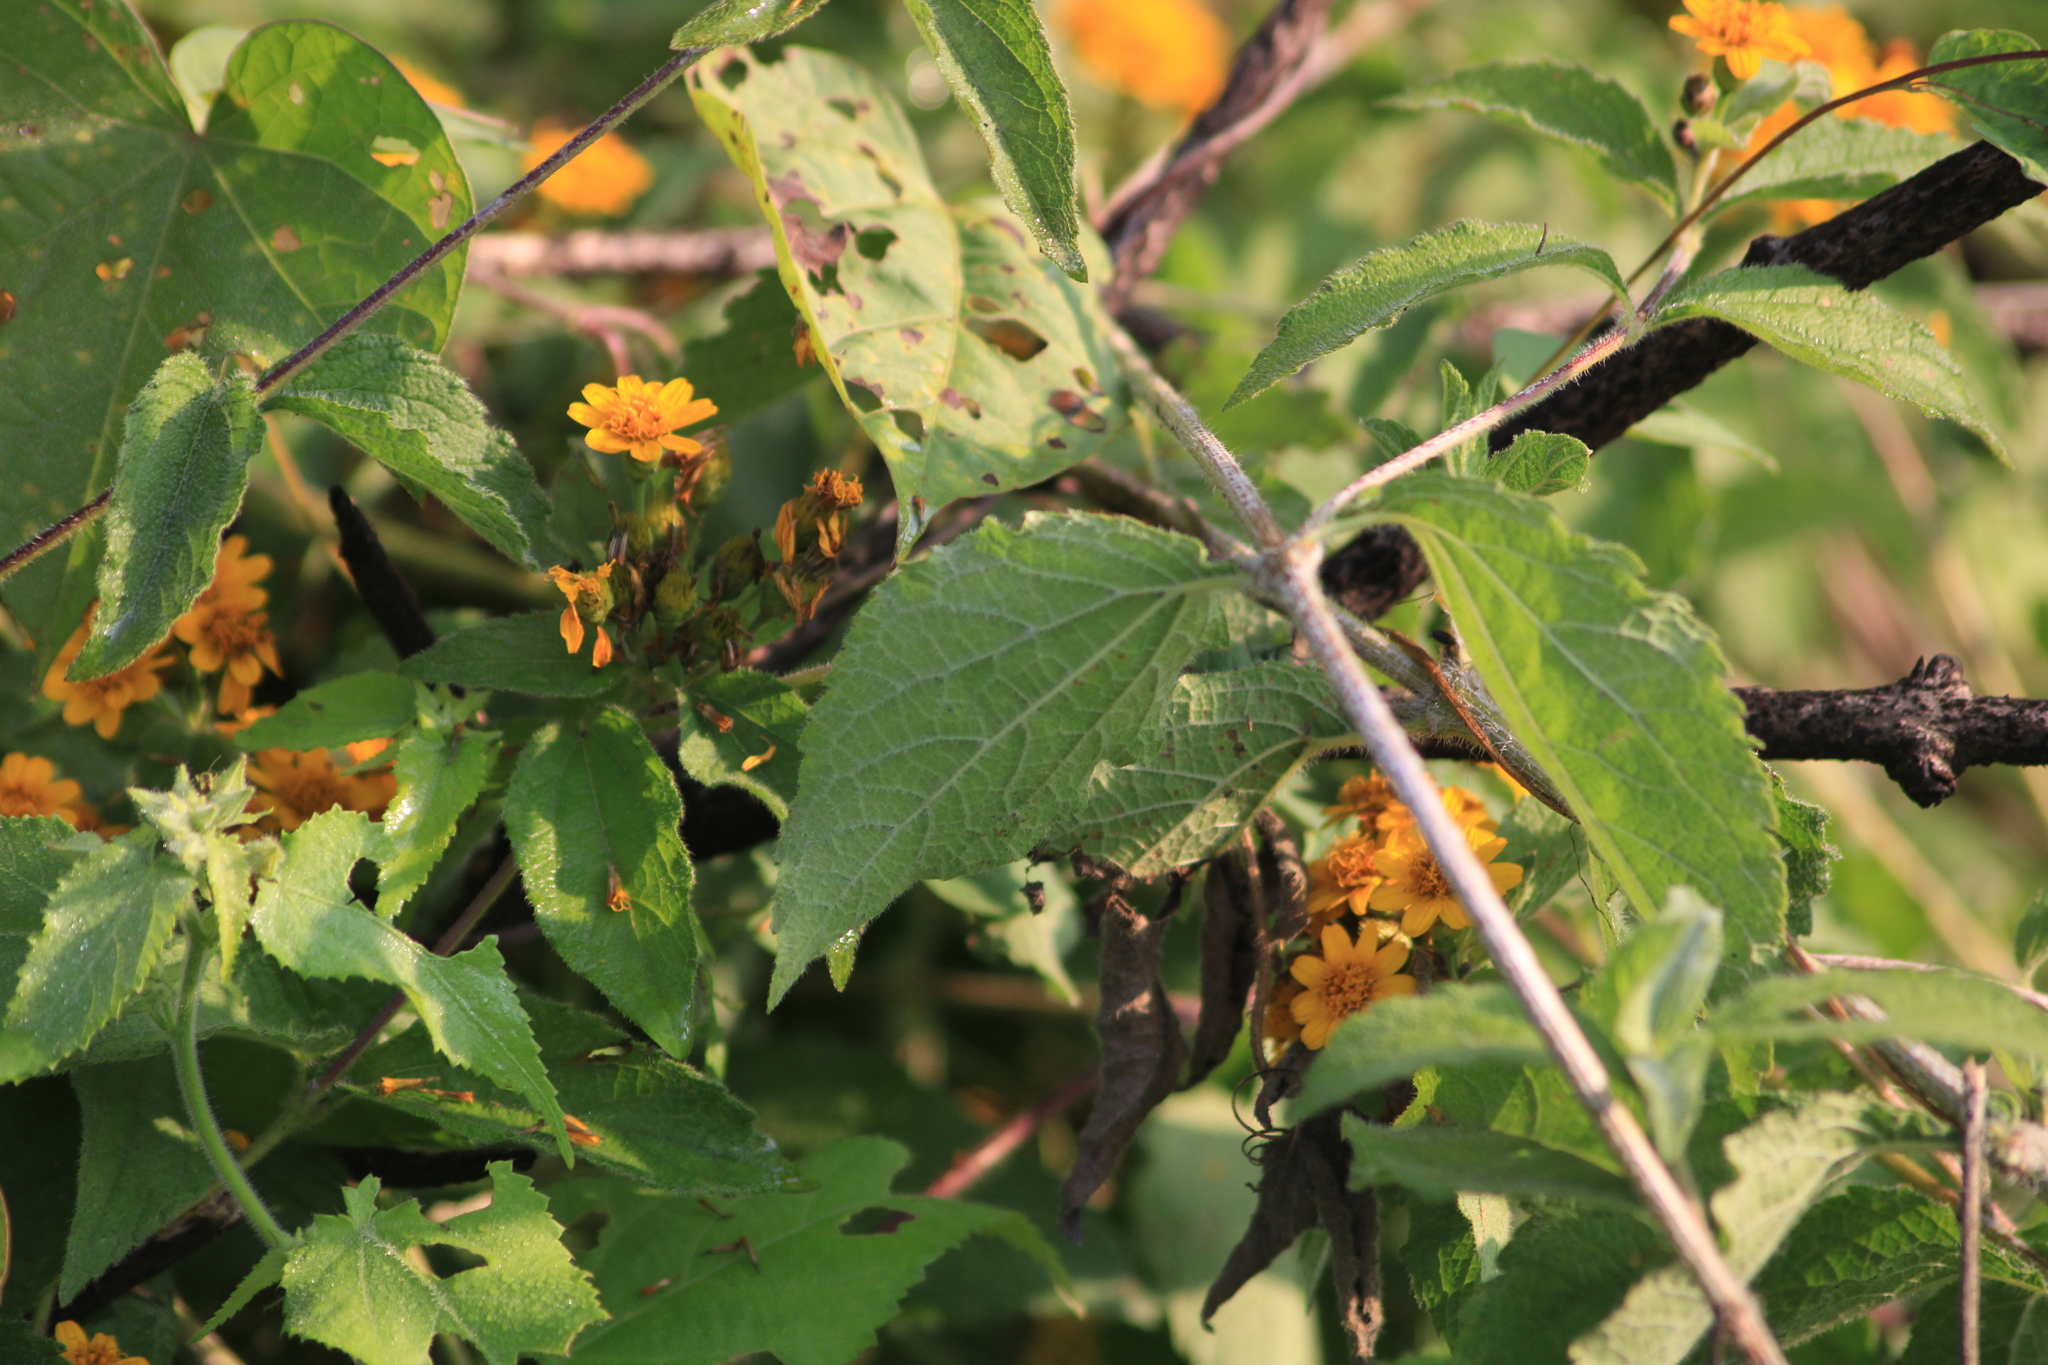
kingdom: Plantae
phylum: Tracheophyta
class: Magnoliopsida
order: Asterales
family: Asteraceae
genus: Calea
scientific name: Calea urticifolia
